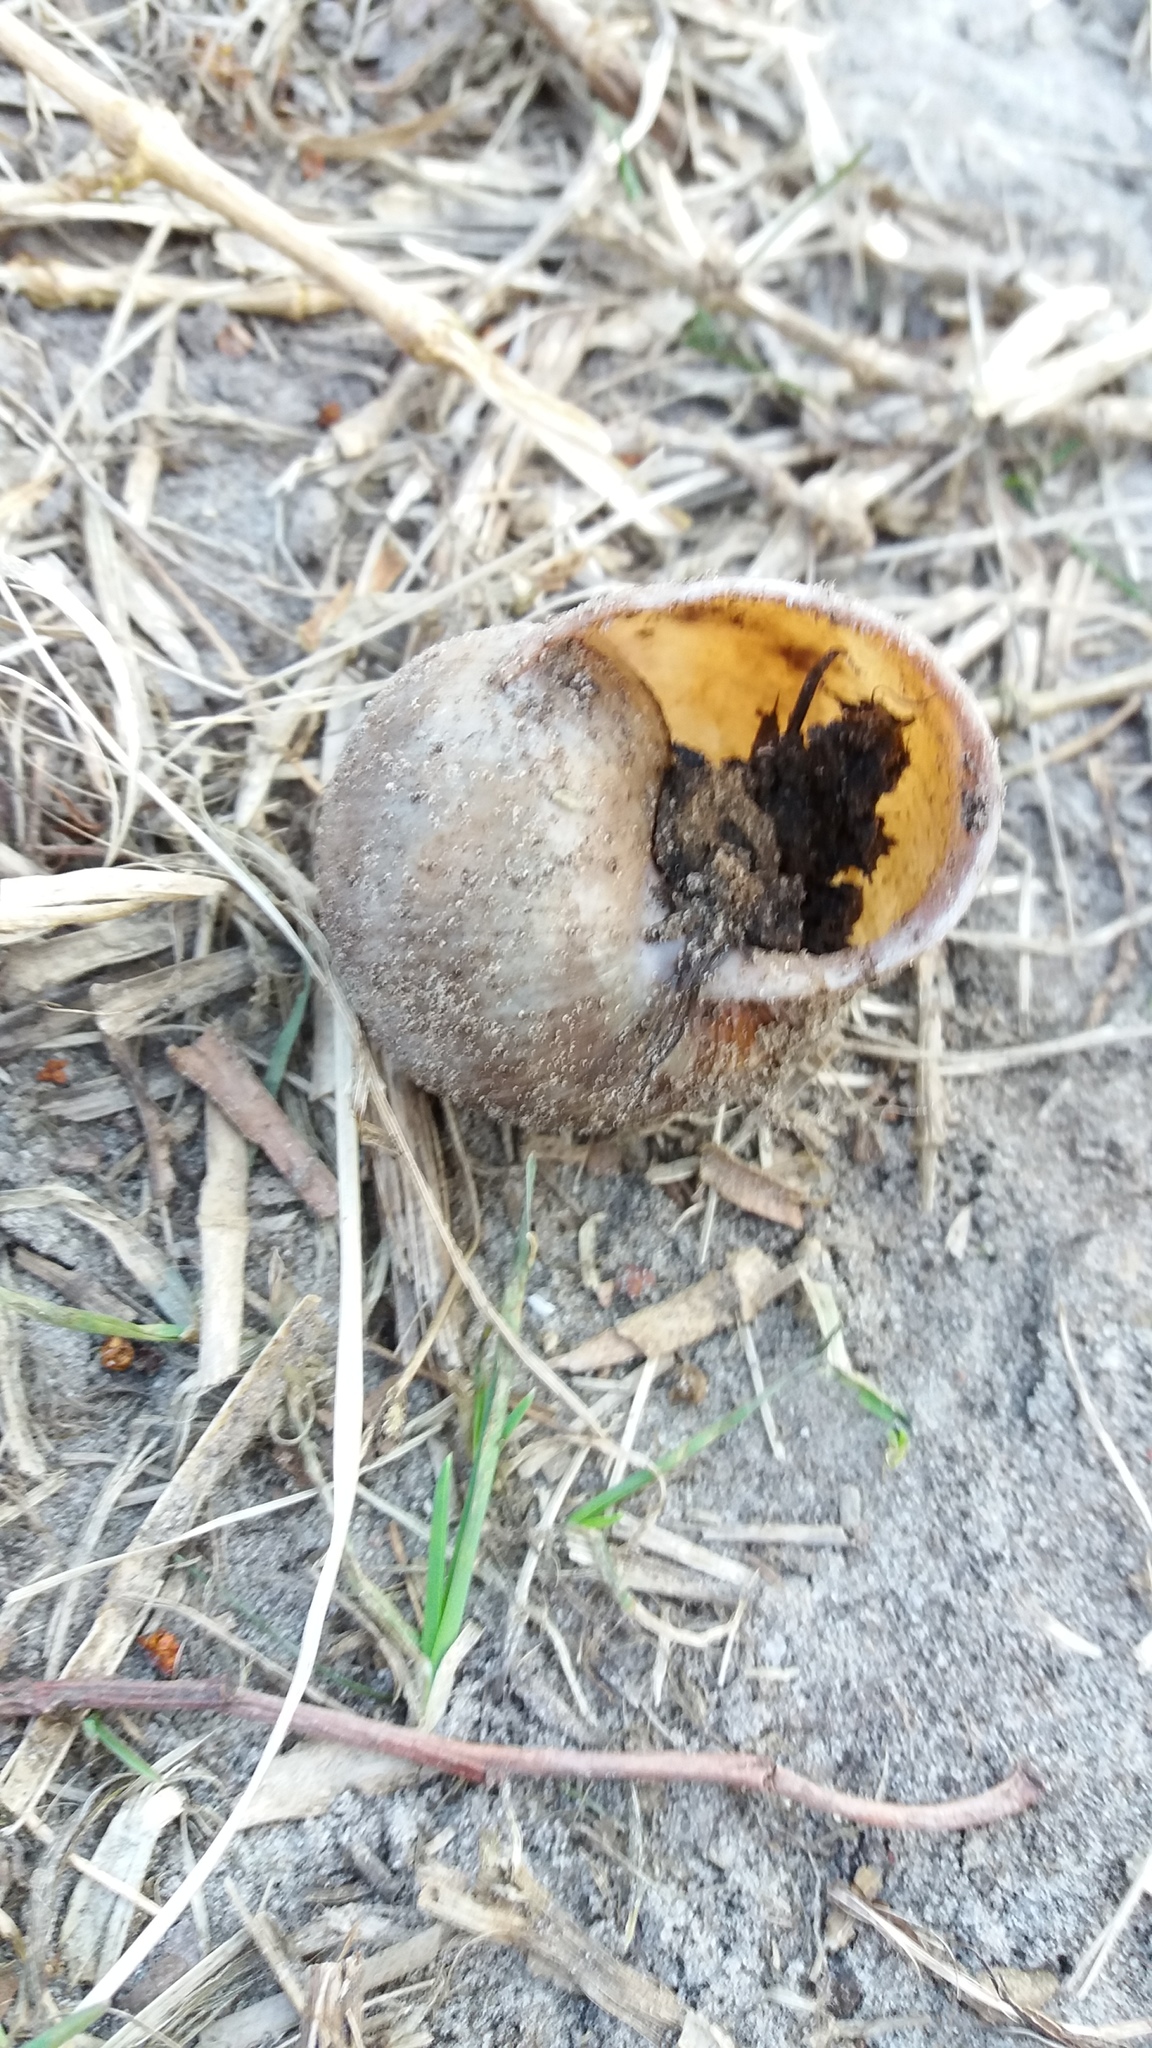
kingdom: Animalia
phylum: Mollusca
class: Gastropoda
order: Stylommatophora
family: Helicidae
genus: Helix
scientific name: Helix pomatia
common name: Roman snail
